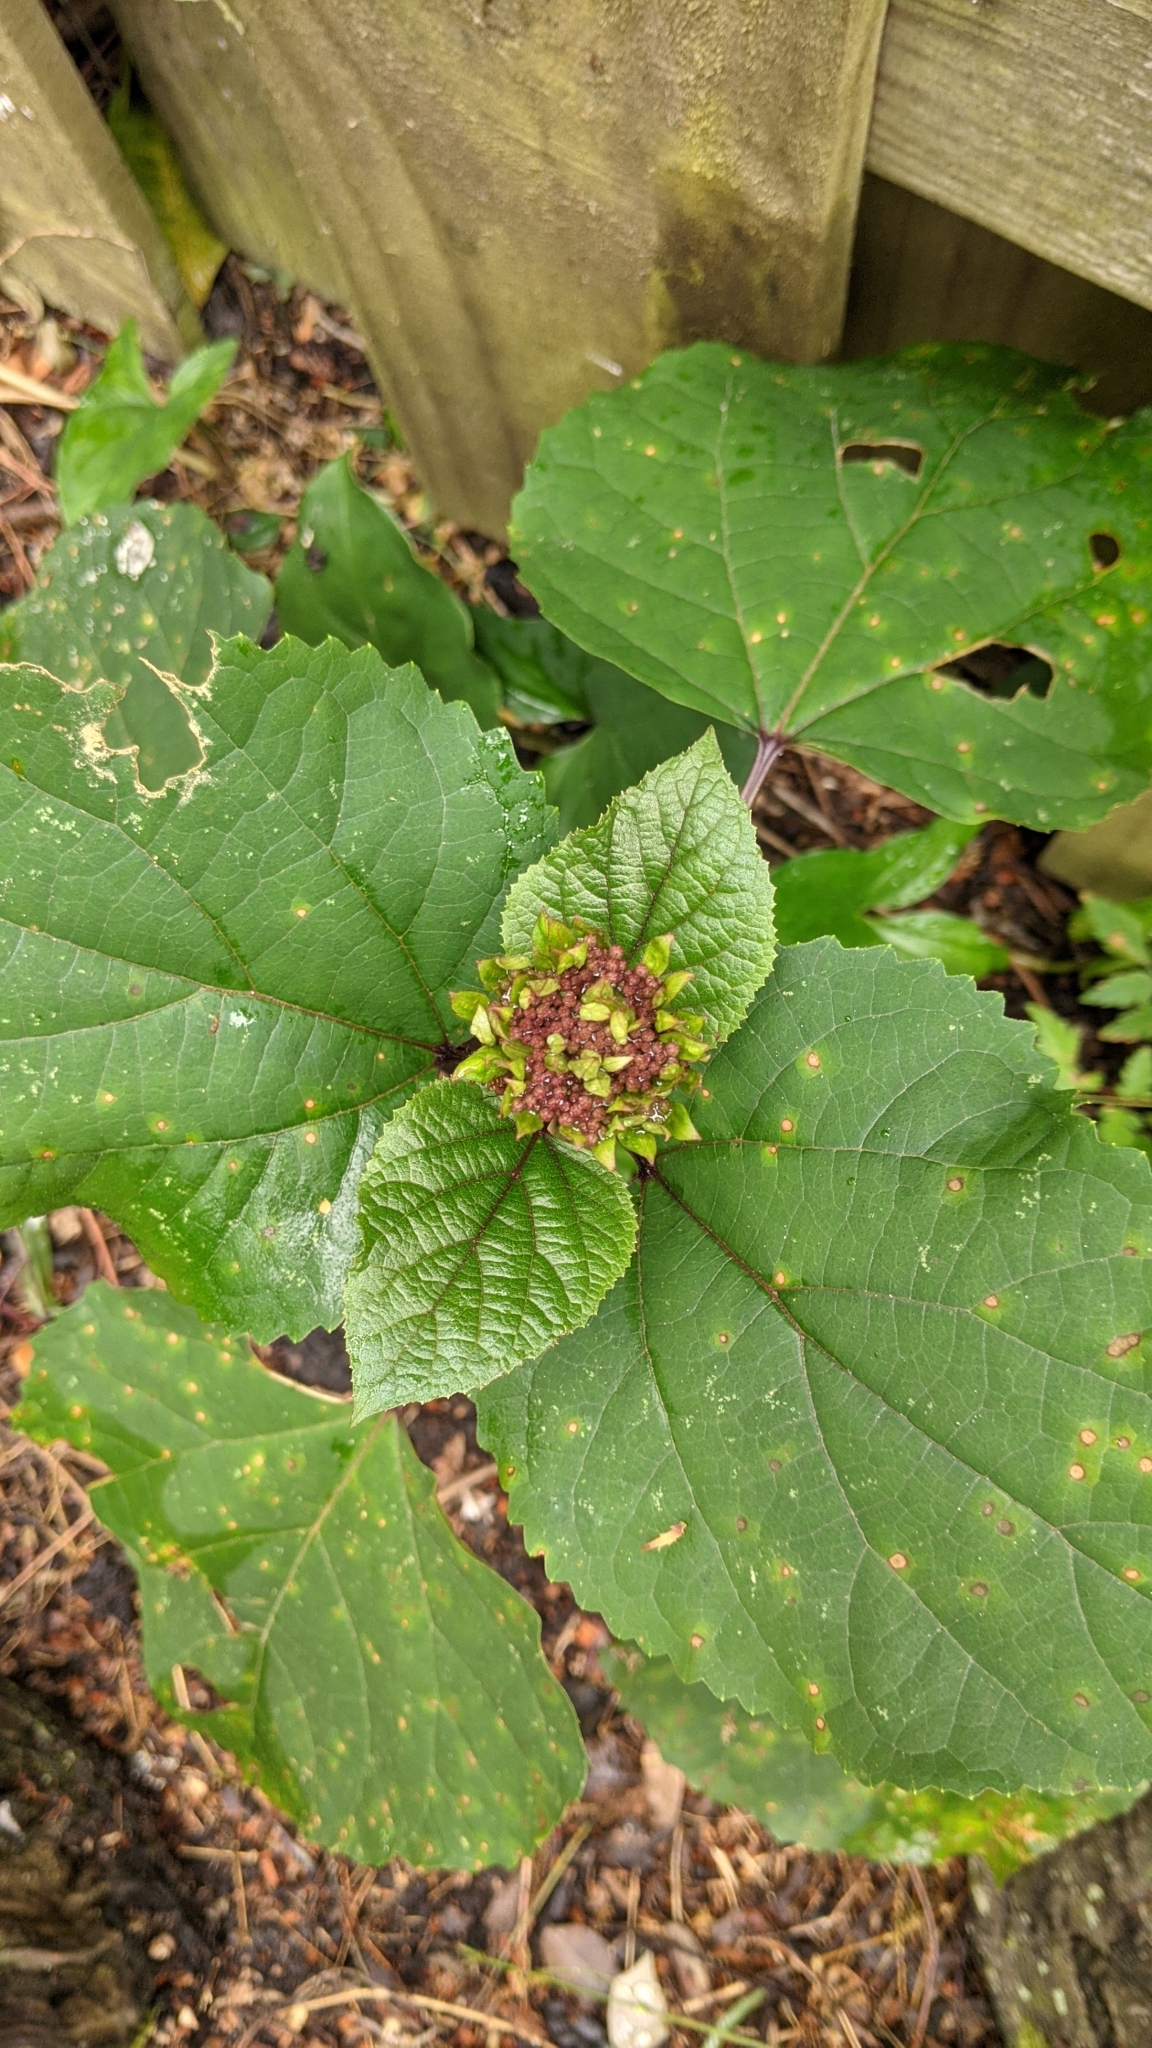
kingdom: Plantae
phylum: Tracheophyta
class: Magnoliopsida
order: Lamiales
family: Lamiaceae
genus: Clerodendrum
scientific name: Clerodendrum bungei
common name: Rose glorybower
